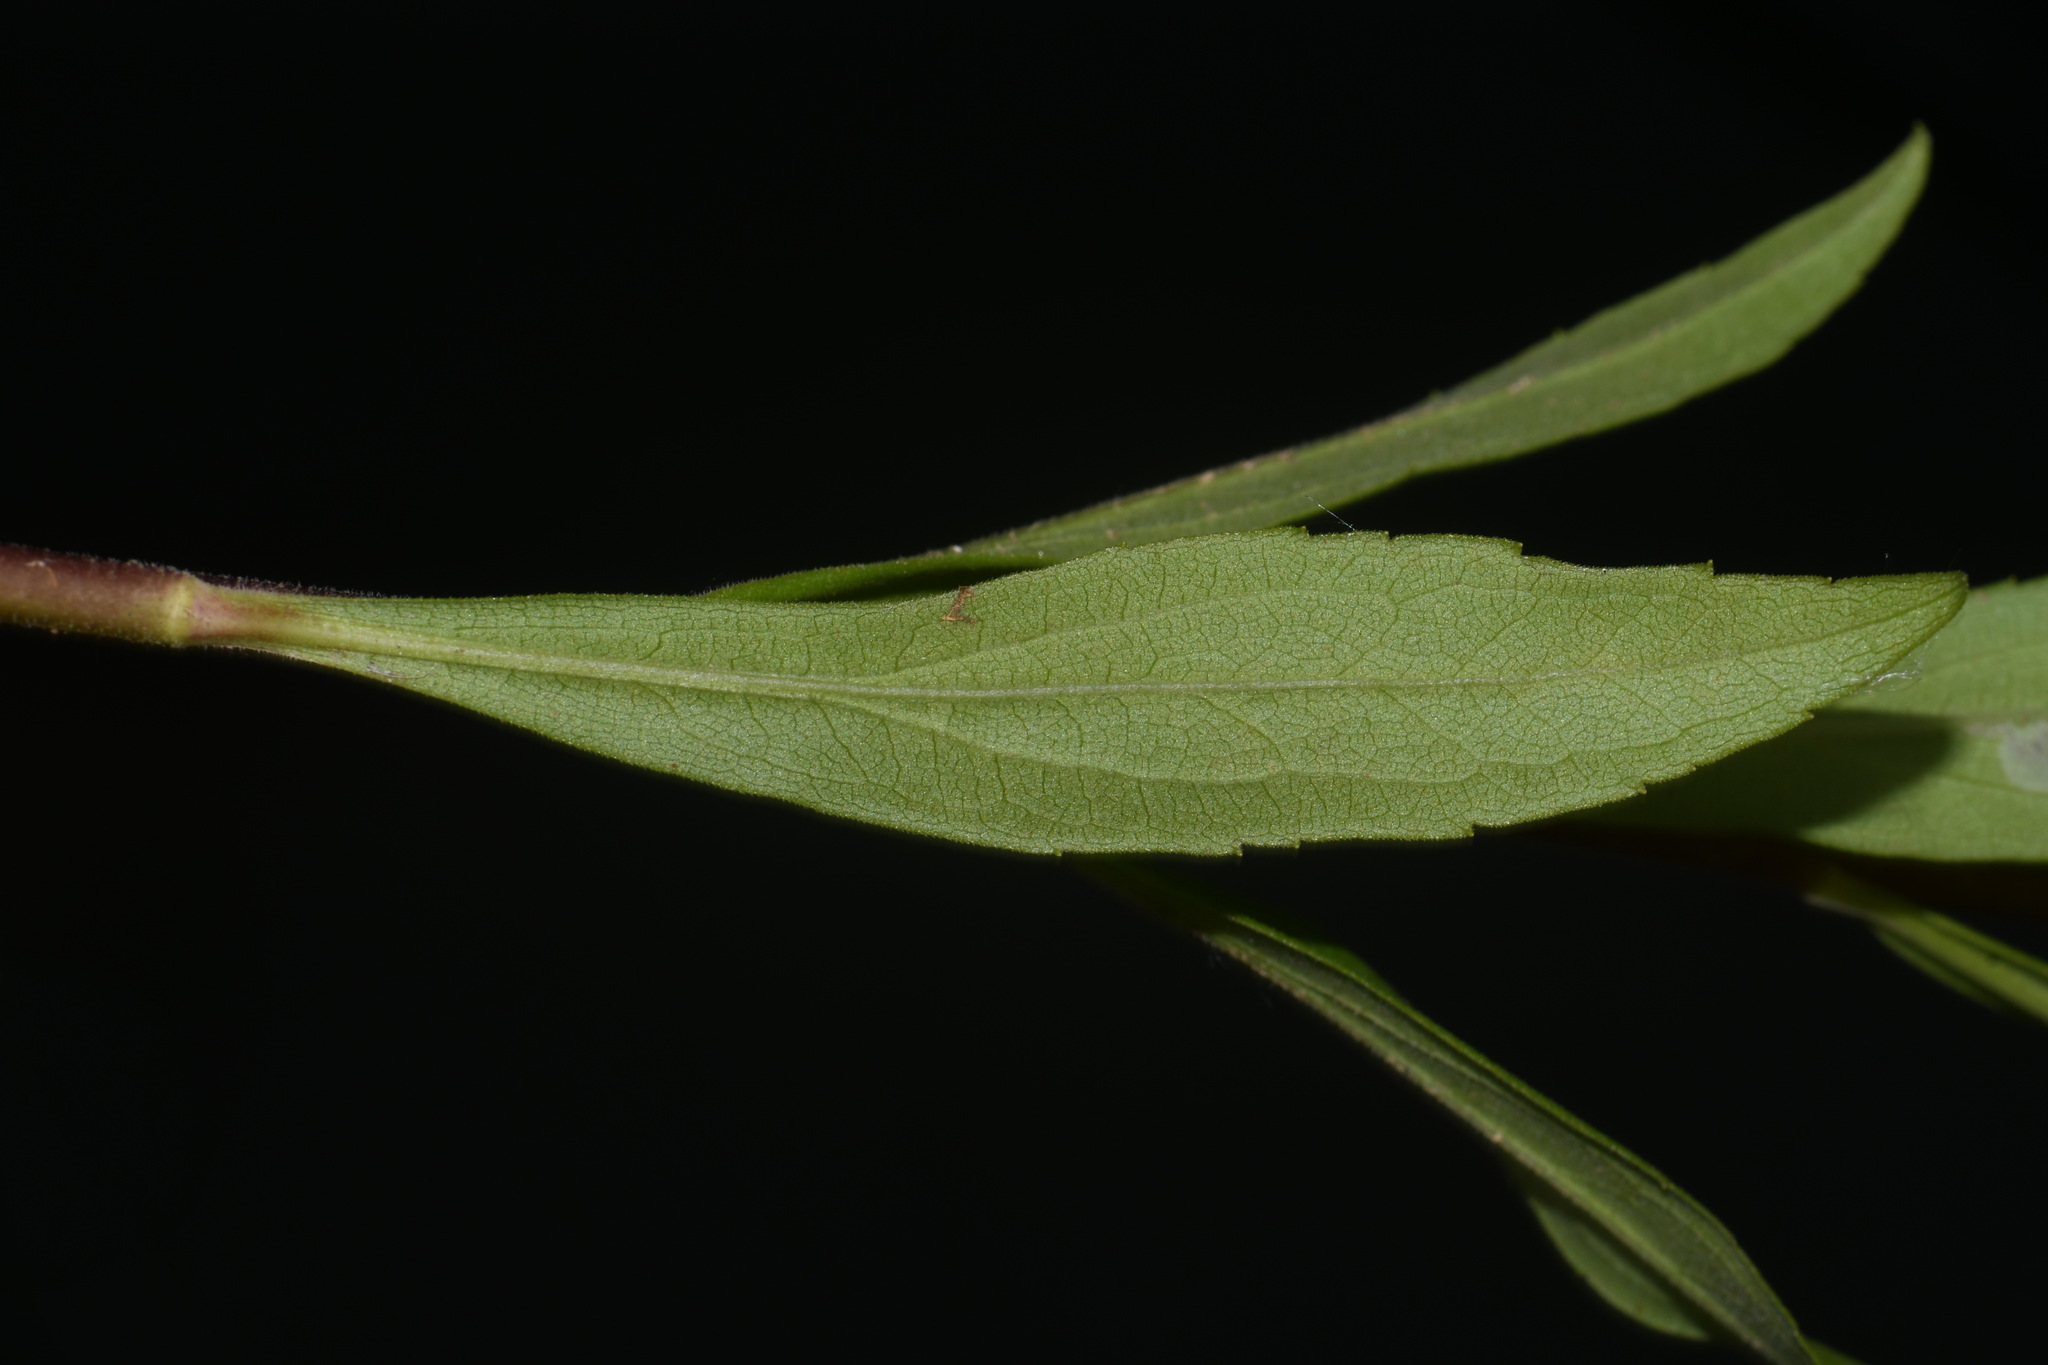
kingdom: Plantae
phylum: Tracheophyta
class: Magnoliopsida
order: Lamiales
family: Plantaginaceae
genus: Penstemon
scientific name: Penstemon tenuiflorus
